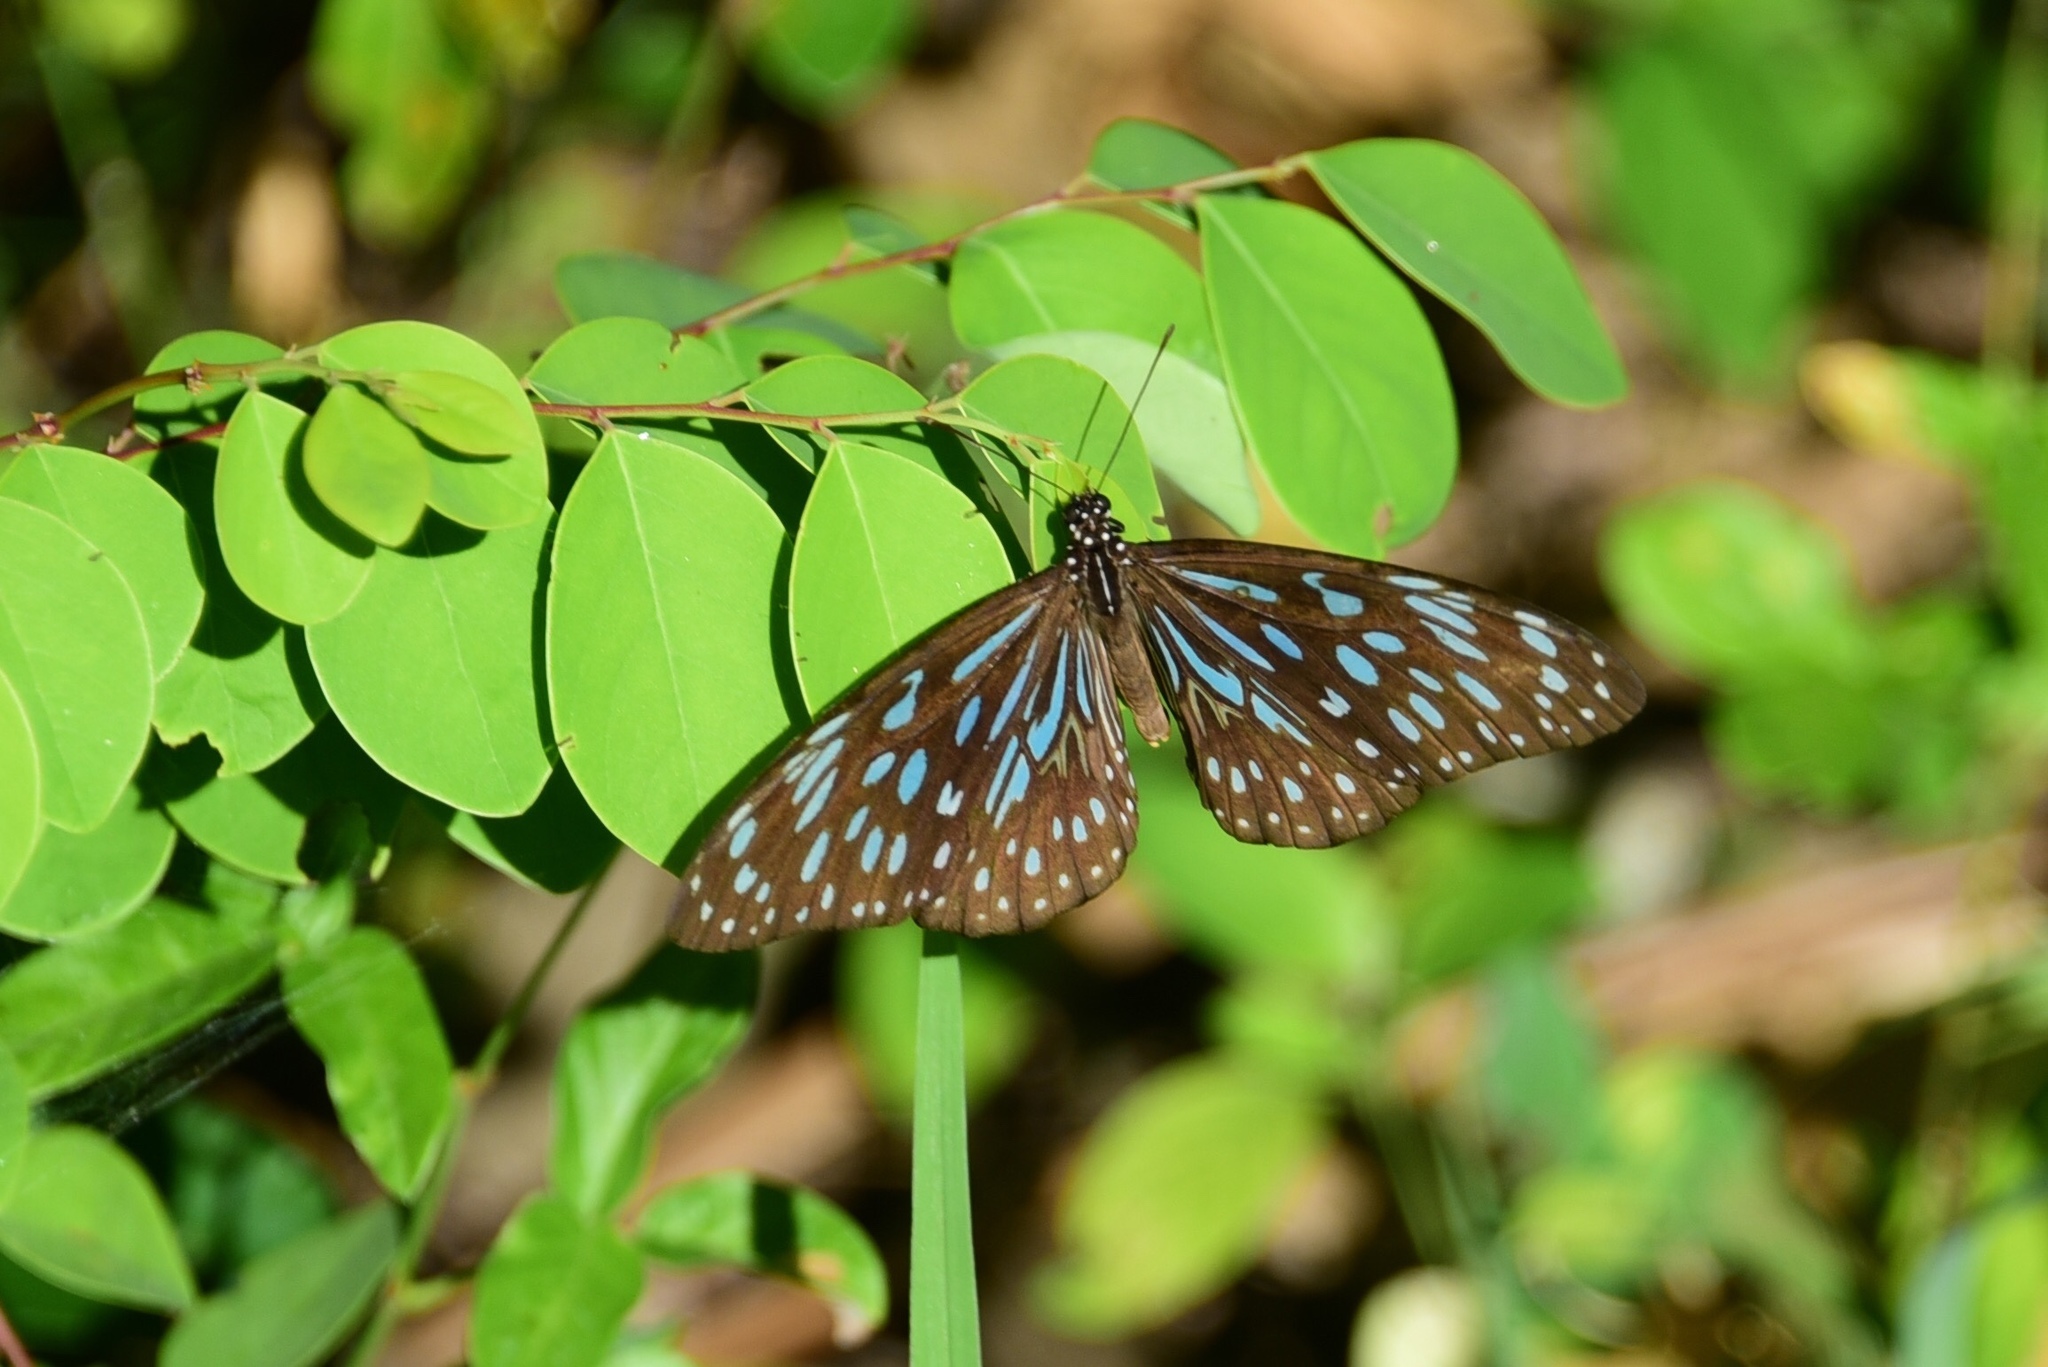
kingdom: Animalia
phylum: Arthropoda
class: Insecta
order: Lepidoptera
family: Nymphalidae
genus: Tirumala
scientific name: Tirumala hamata
